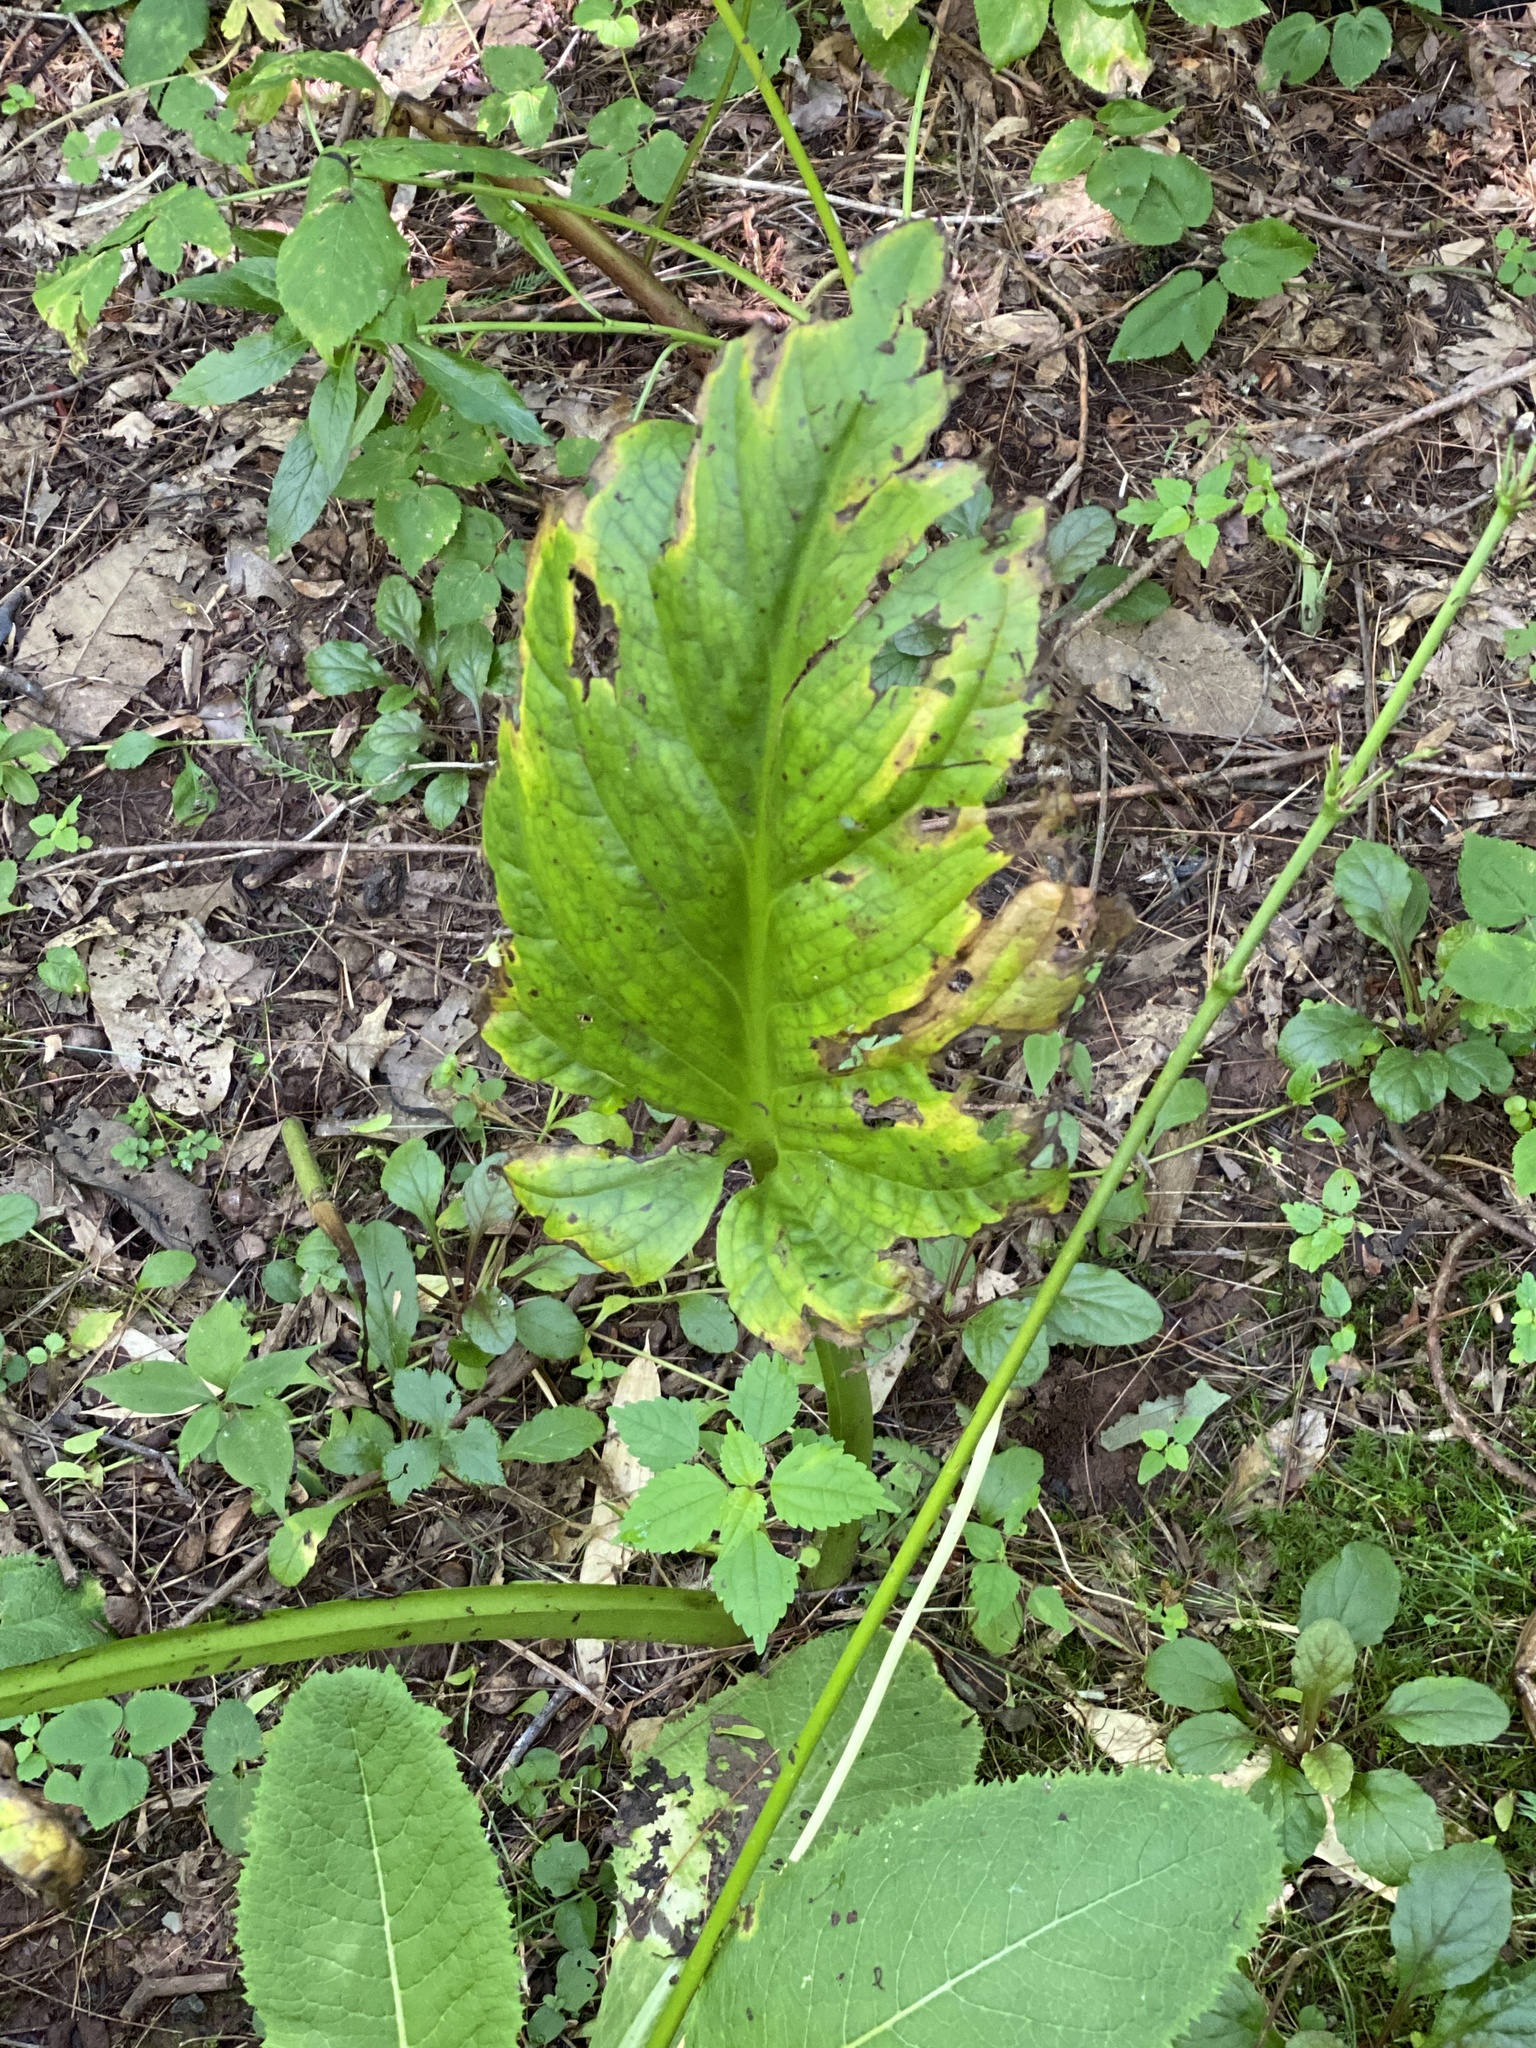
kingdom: Plantae
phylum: Tracheophyta
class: Liliopsida
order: Alismatales
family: Araceae
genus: Symplocarpus
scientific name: Symplocarpus foetidus
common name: Eastern skunk cabbage
